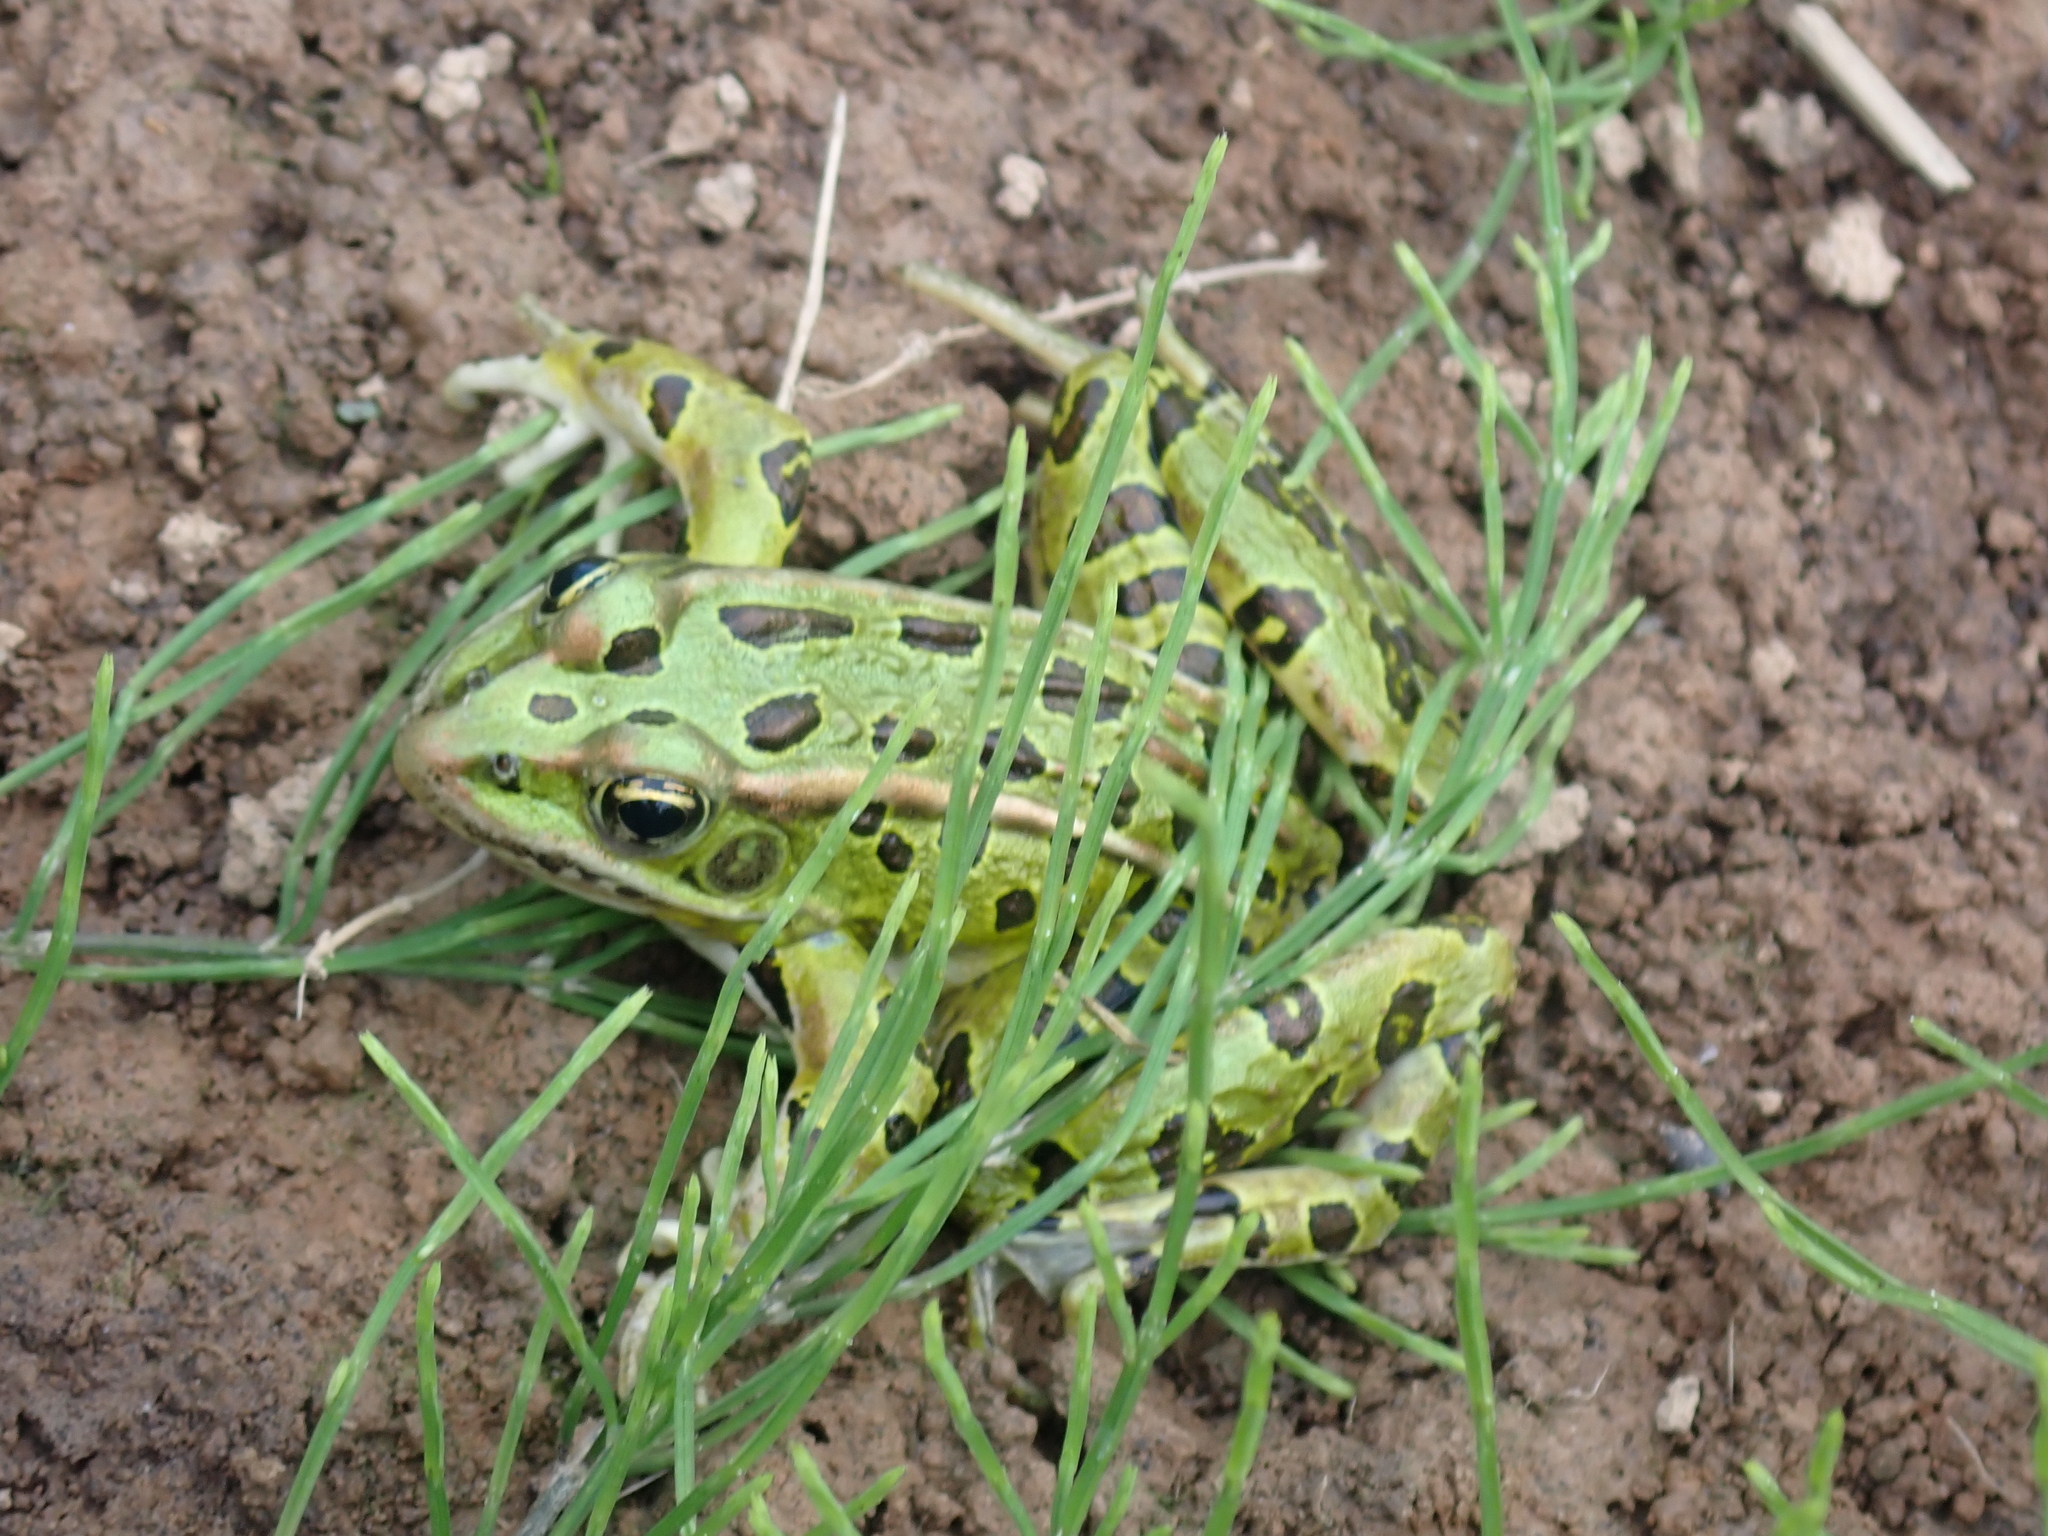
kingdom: Animalia
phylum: Chordata
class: Amphibia
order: Anura
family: Ranidae
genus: Lithobates
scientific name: Lithobates pipiens
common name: Northern leopard frog
